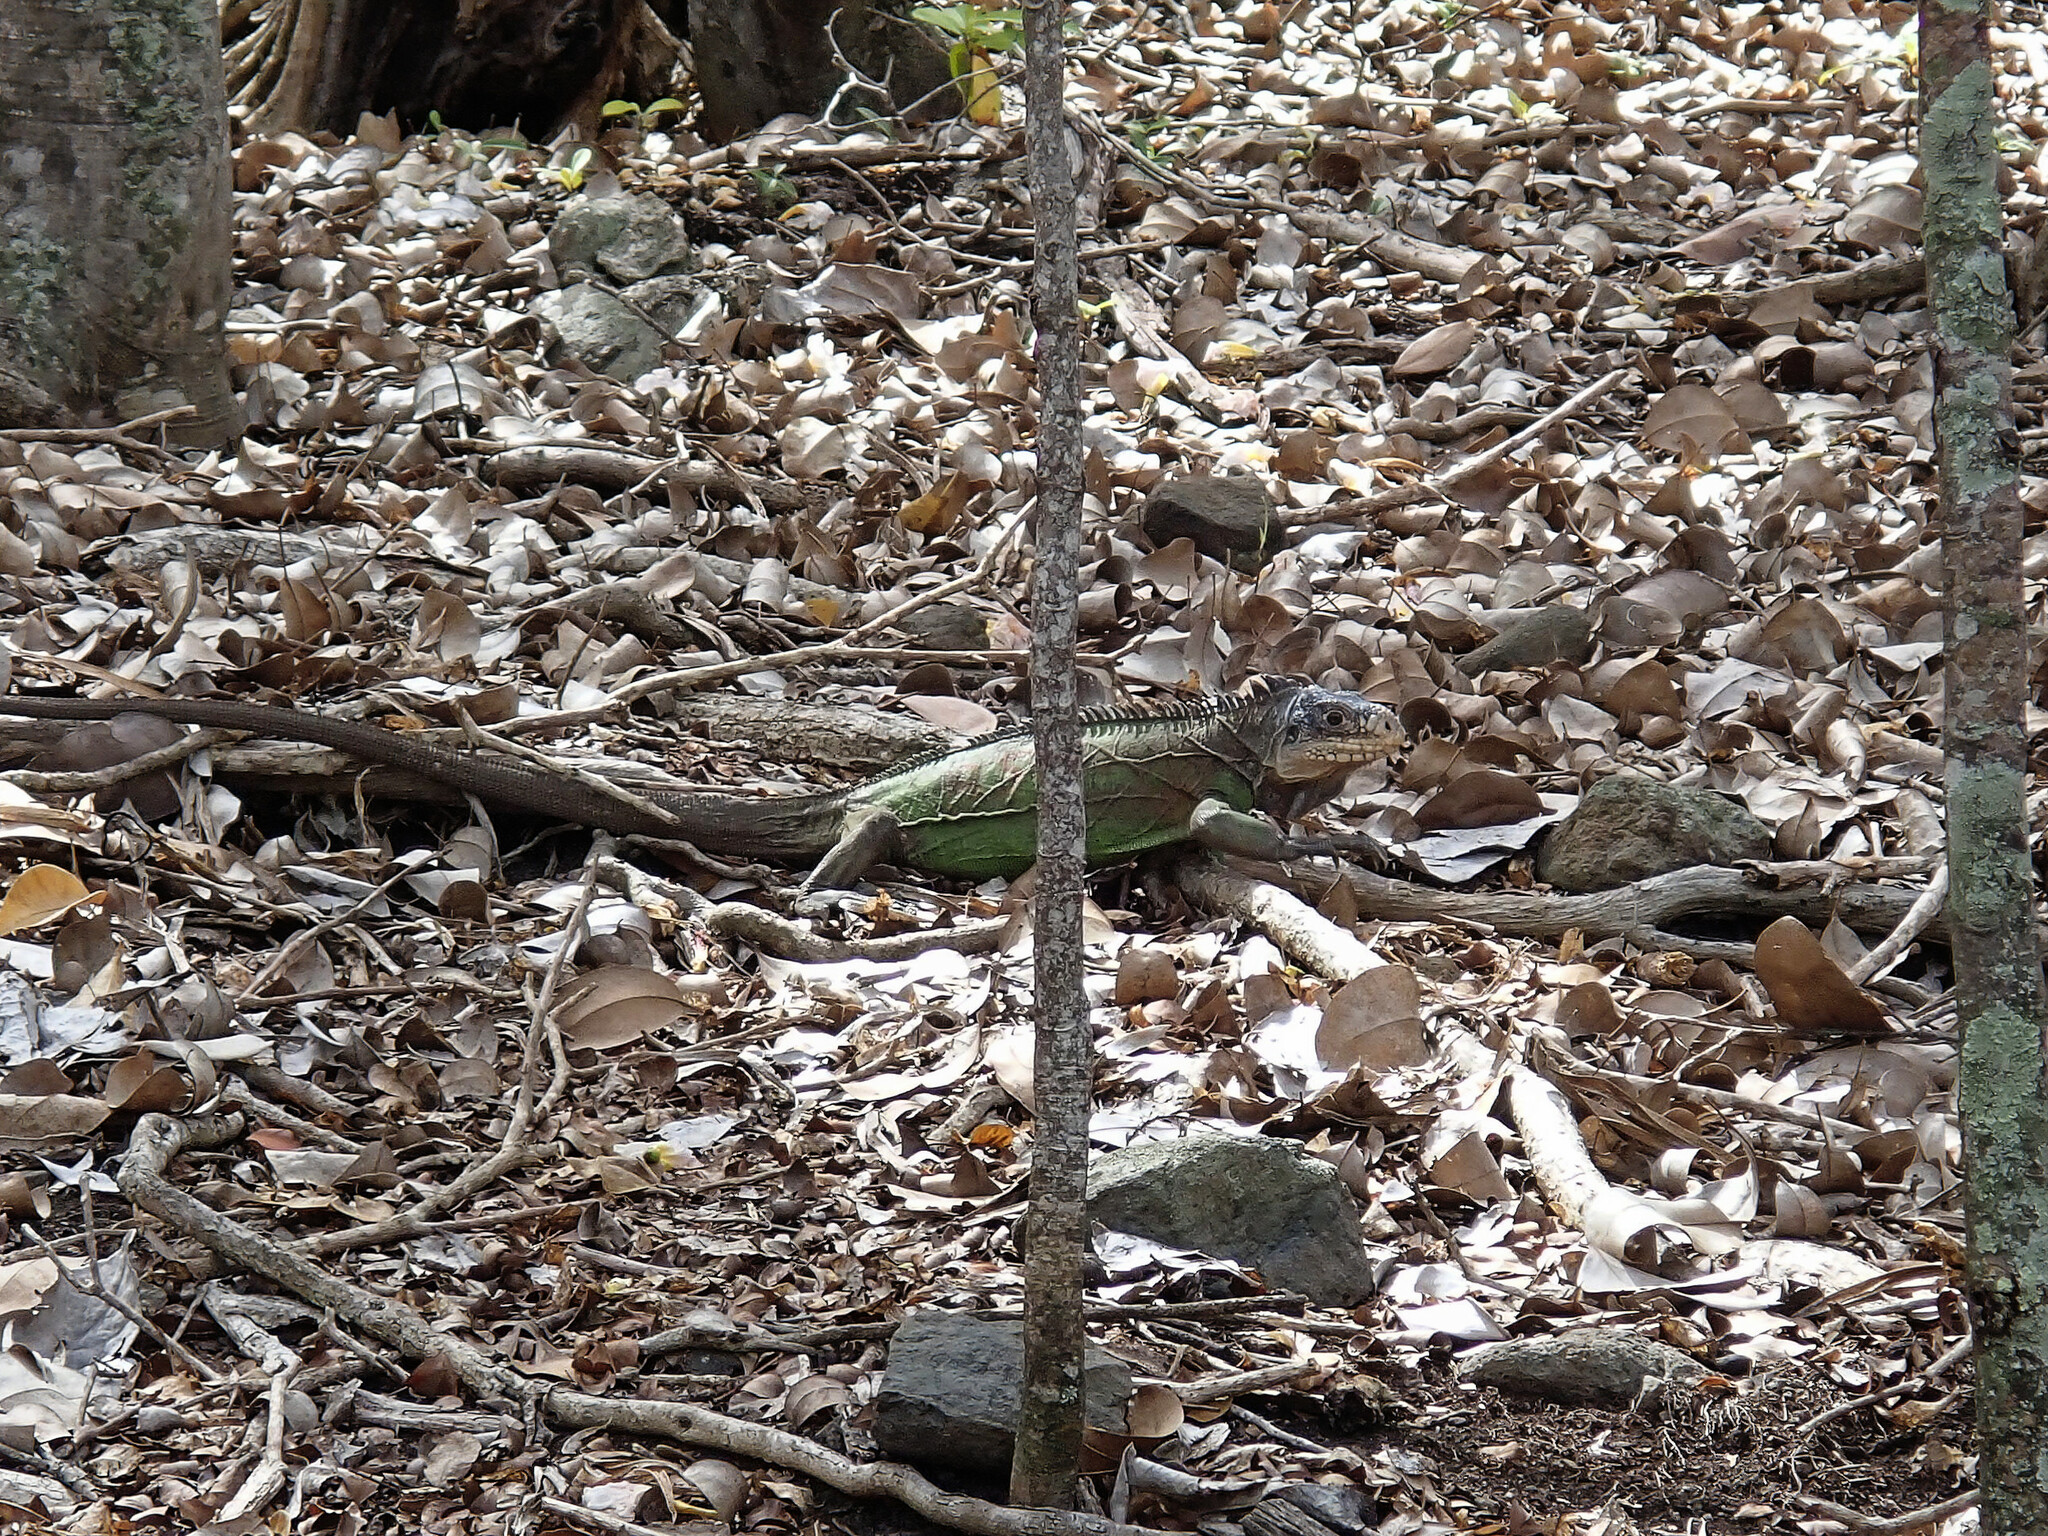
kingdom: Animalia
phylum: Chordata
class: Squamata
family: Iguanidae
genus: Iguana
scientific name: Iguana delicatissima
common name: West indian iguana
